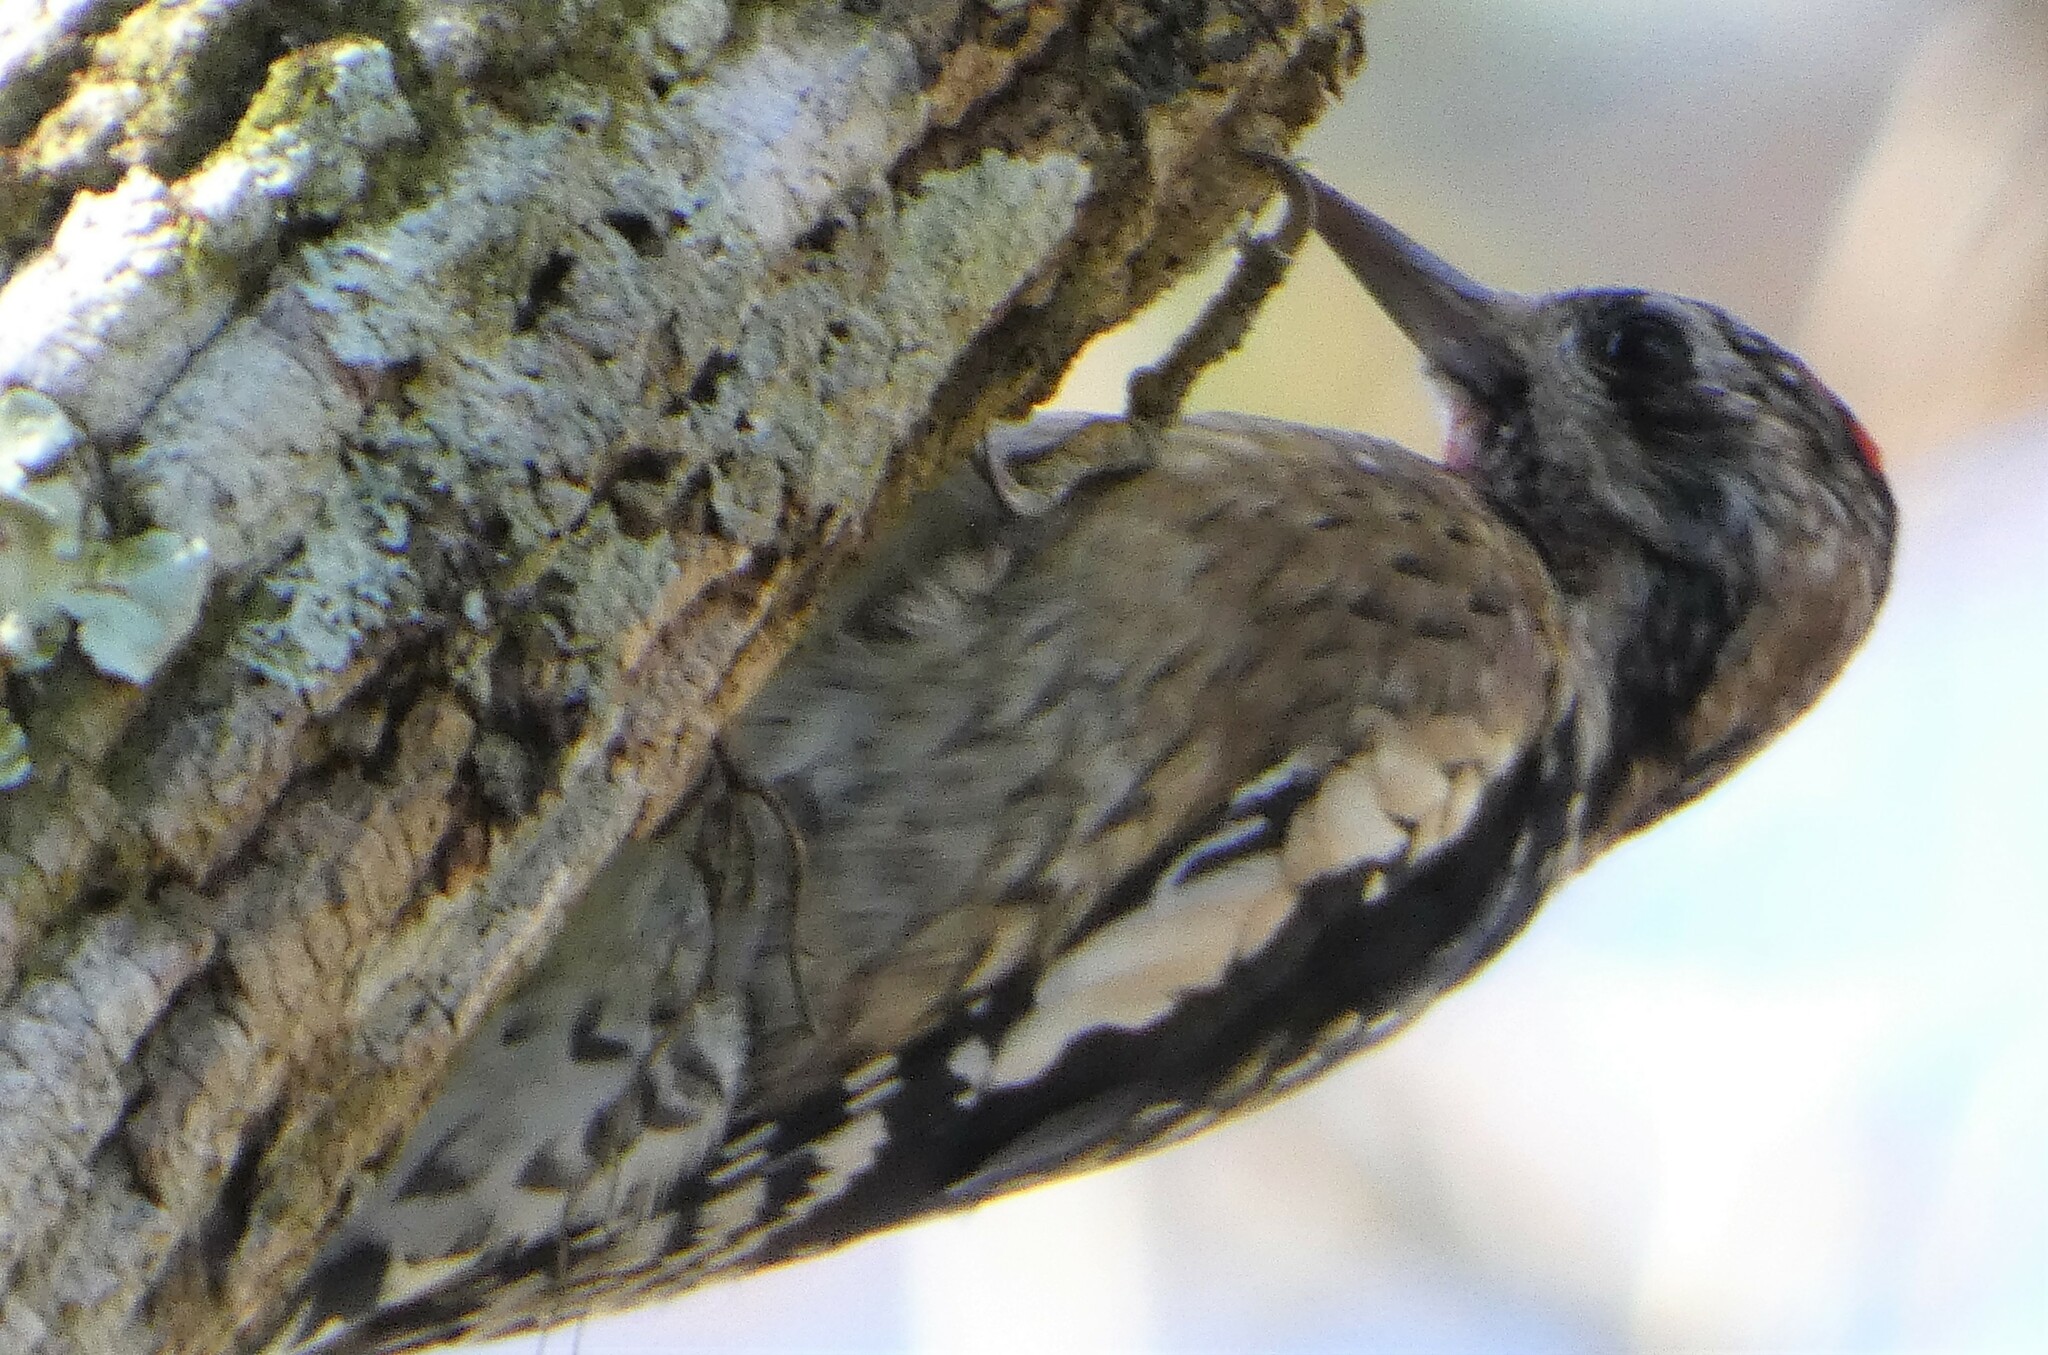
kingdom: Animalia
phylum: Chordata
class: Aves
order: Piciformes
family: Picidae
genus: Sphyrapicus
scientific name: Sphyrapicus varius
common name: Yellow-bellied sapsucker
